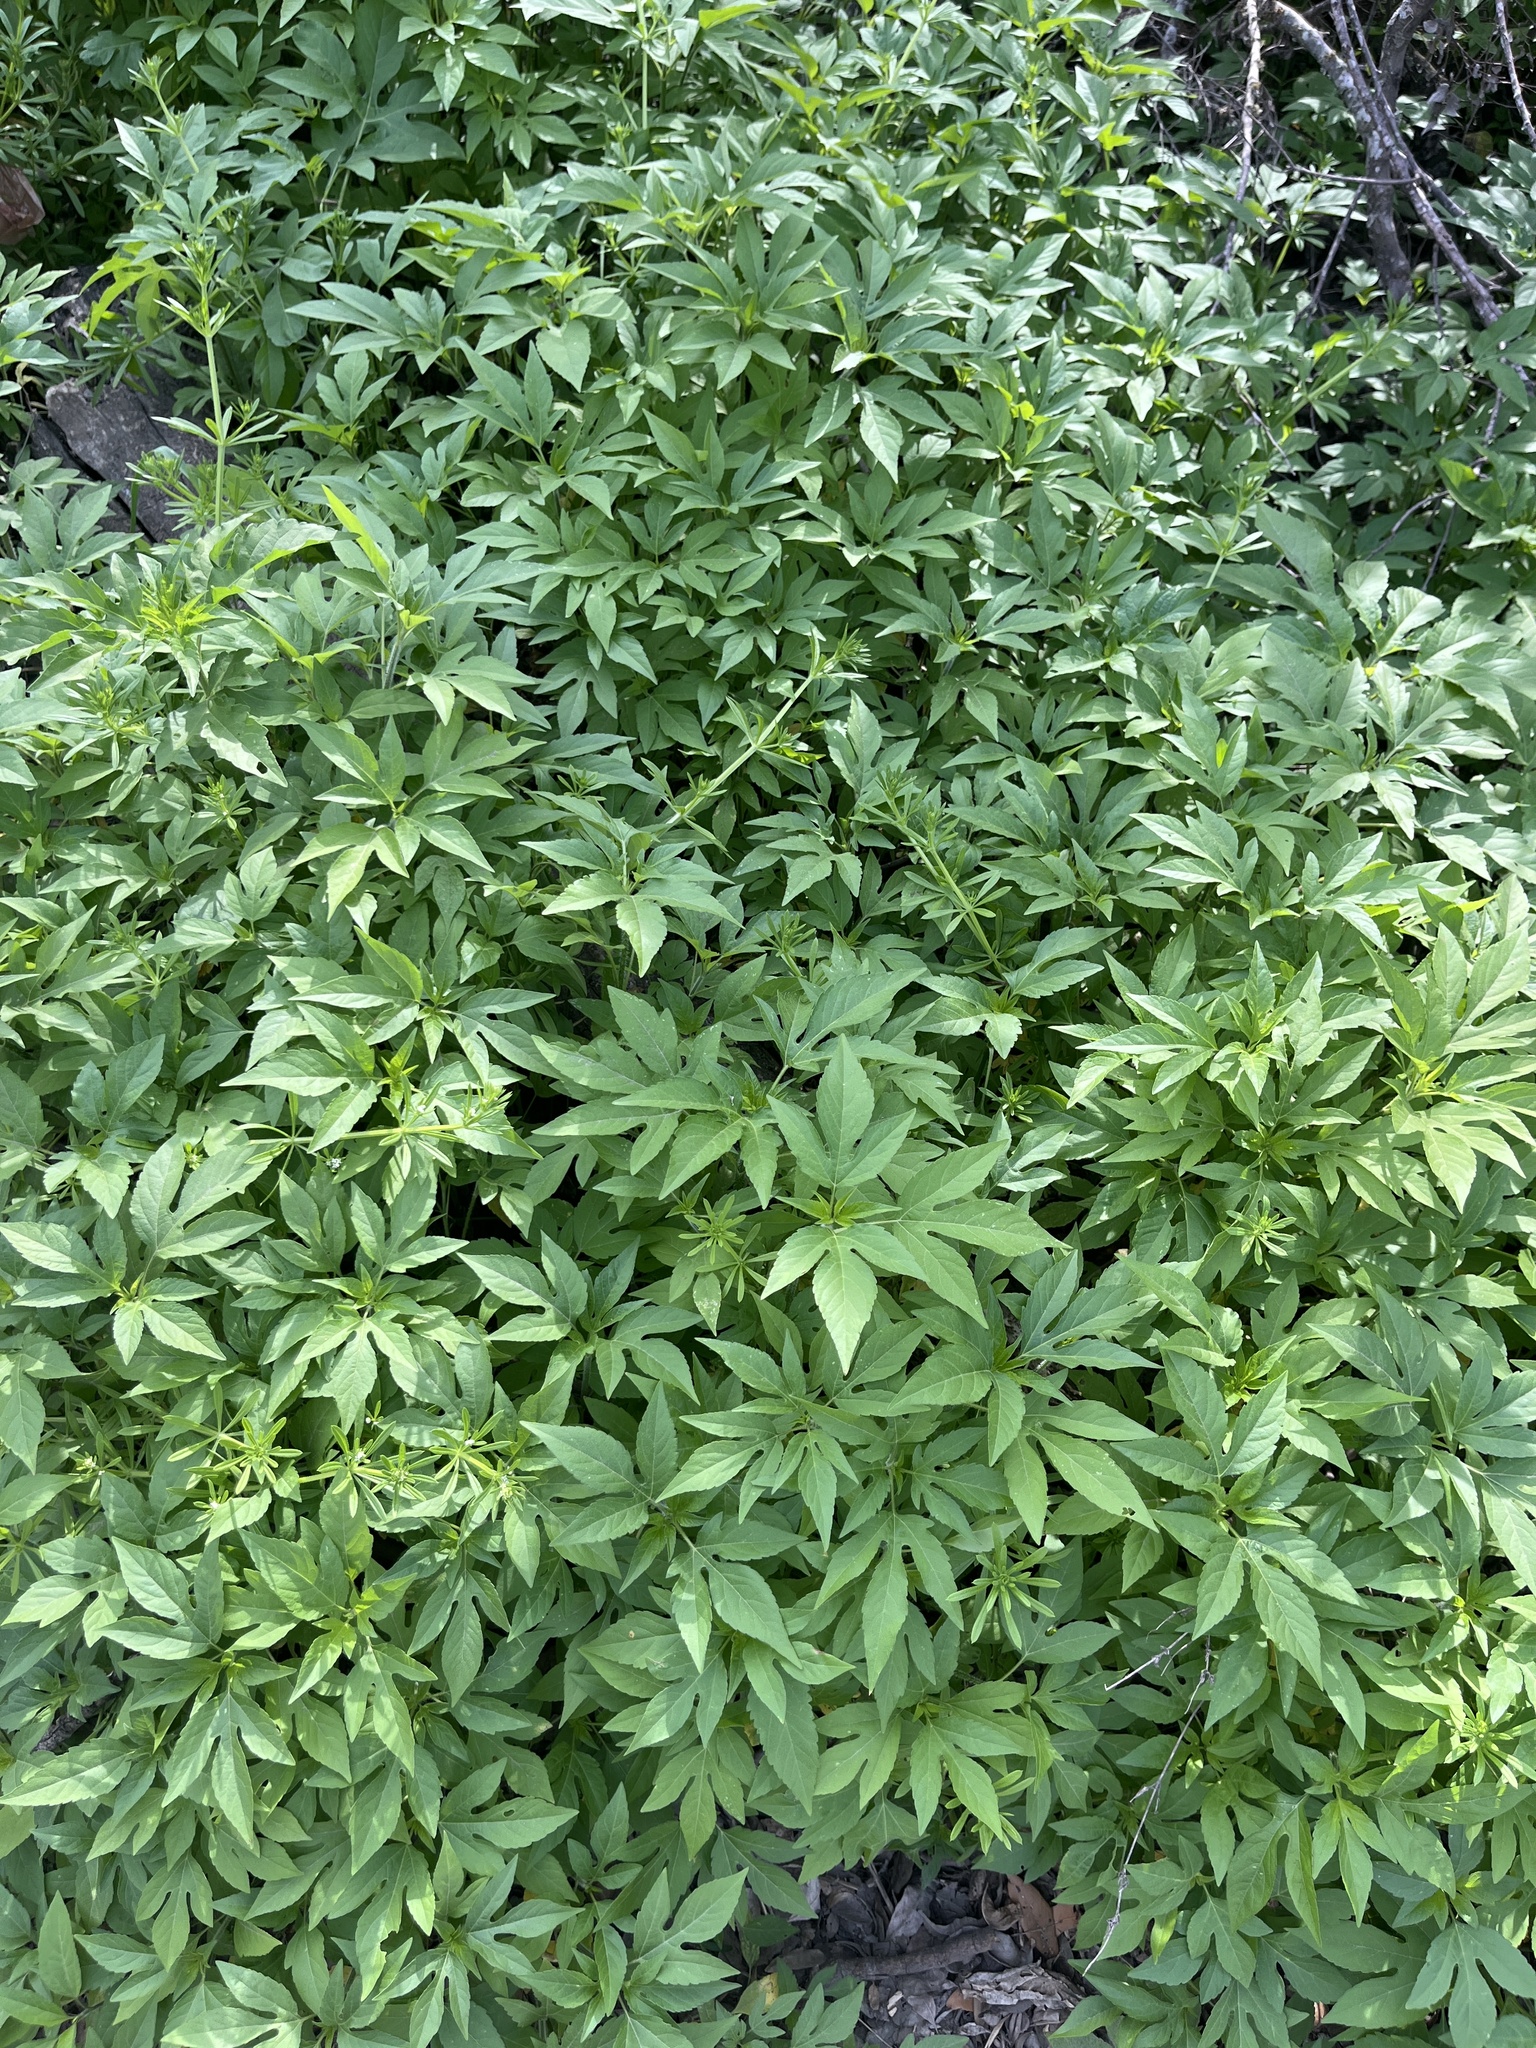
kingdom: Plantae
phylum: Tracheophyta
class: Magnoliopsida
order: Asterales
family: Asteraceae
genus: Ambrosia
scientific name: Ambrosia trifida
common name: Giant ragweed
